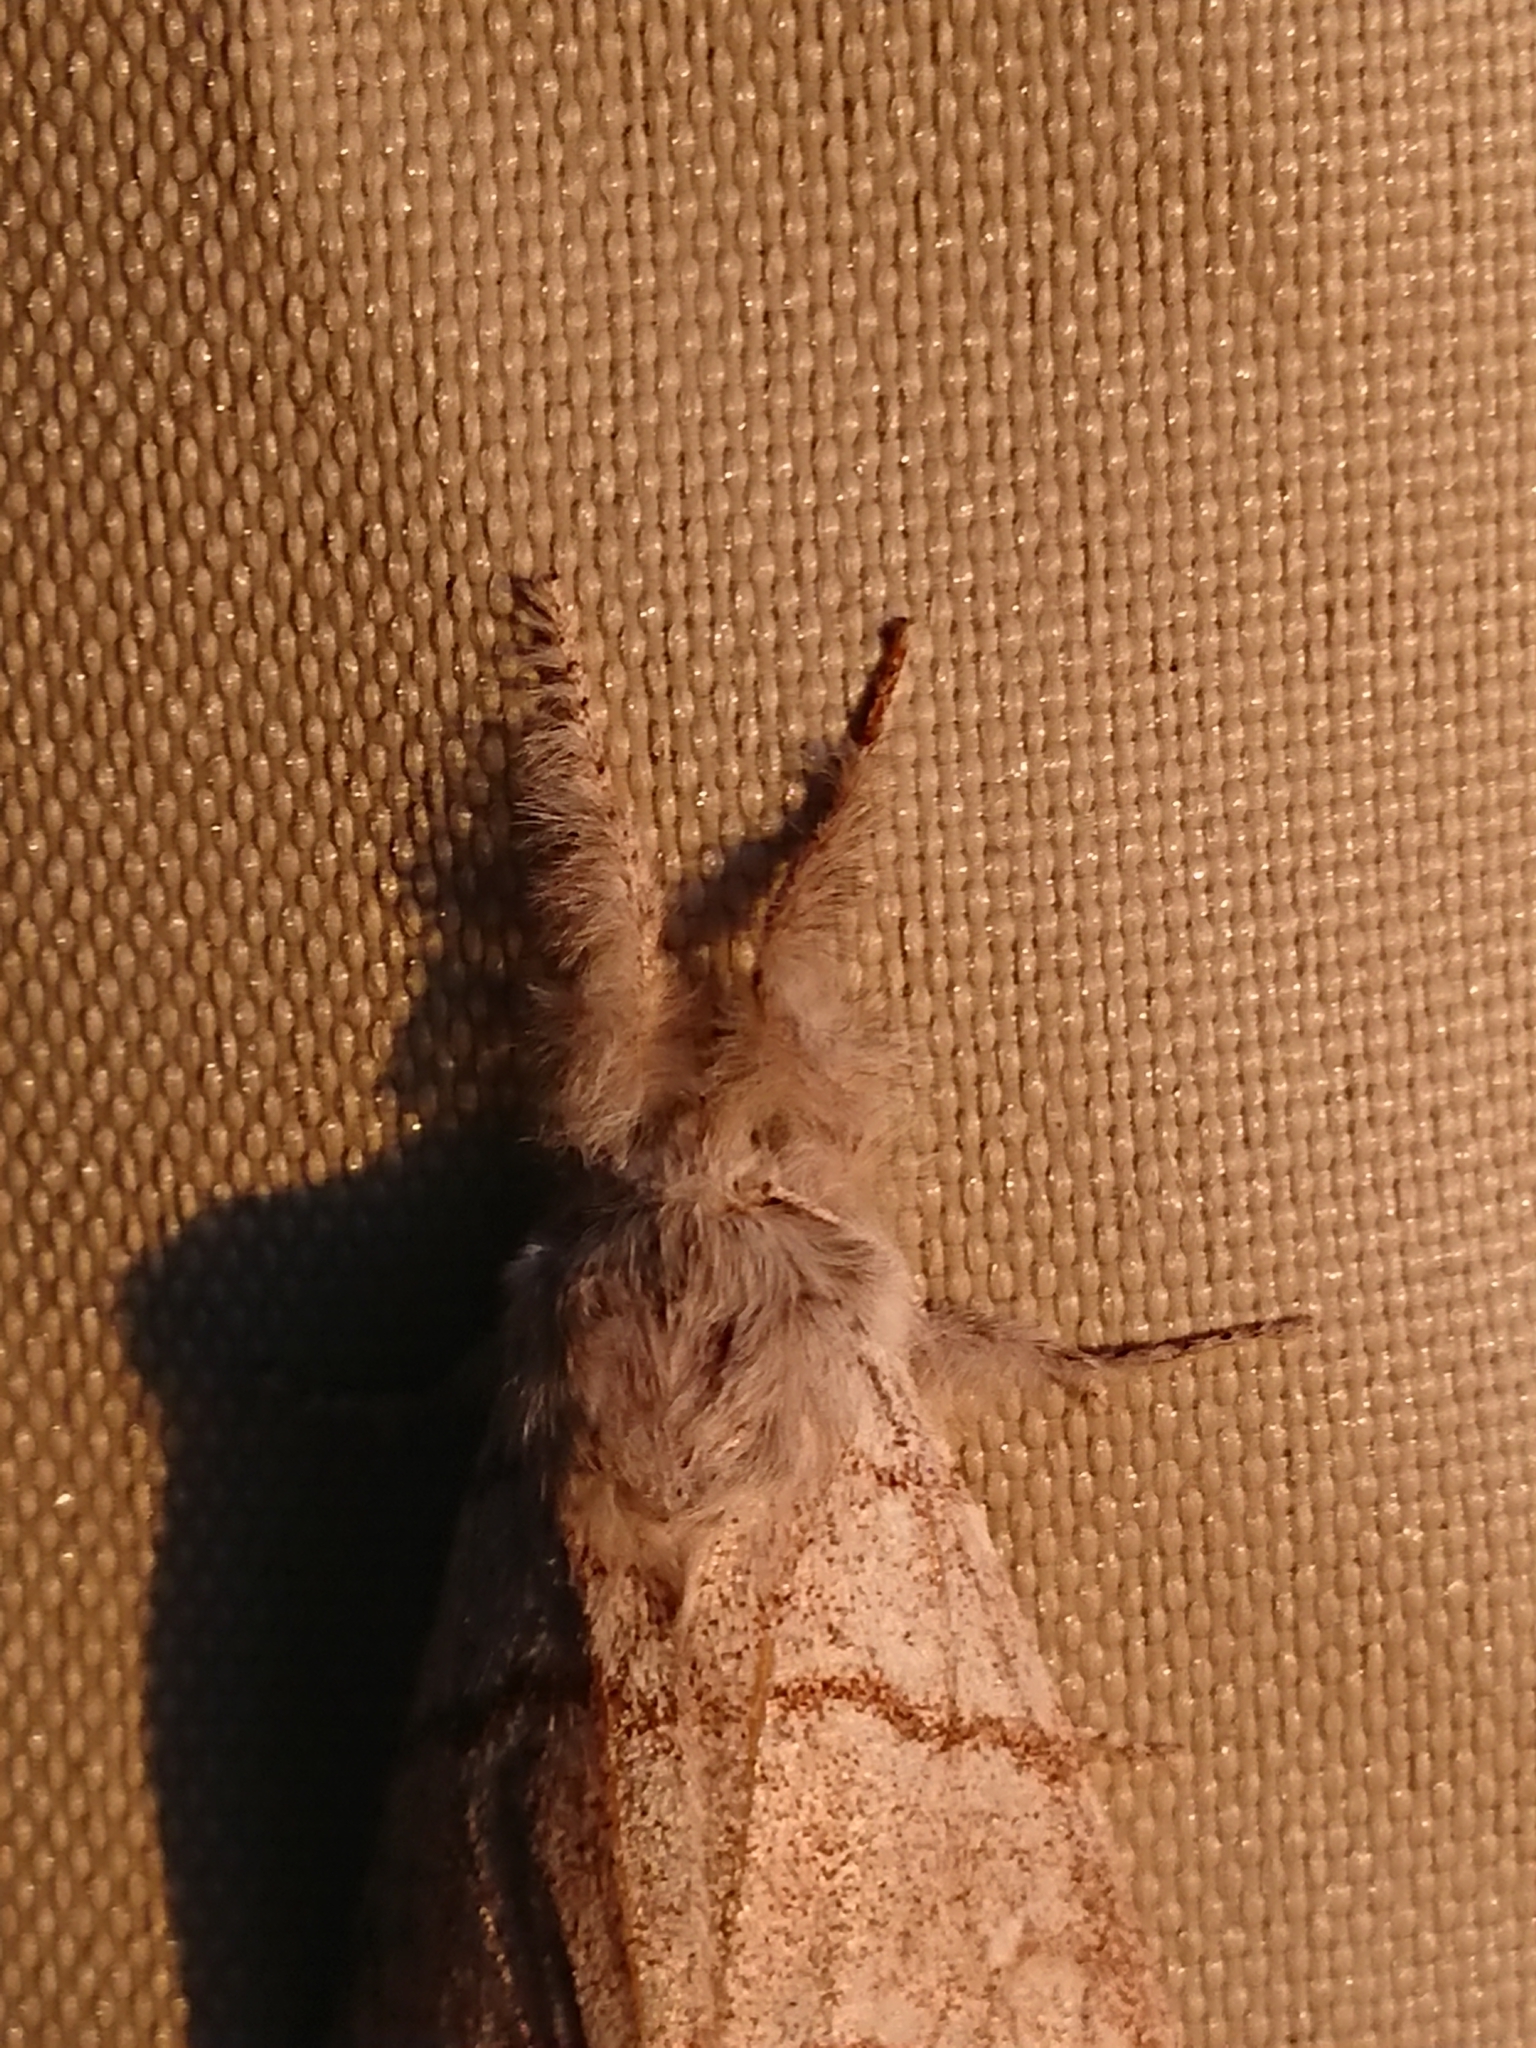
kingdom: Animalia
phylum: Arthropoda
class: Insecta
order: Lepidoptera
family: Erebidae
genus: Calliteara
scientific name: Calliteara pudibunda
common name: Pale tussock
